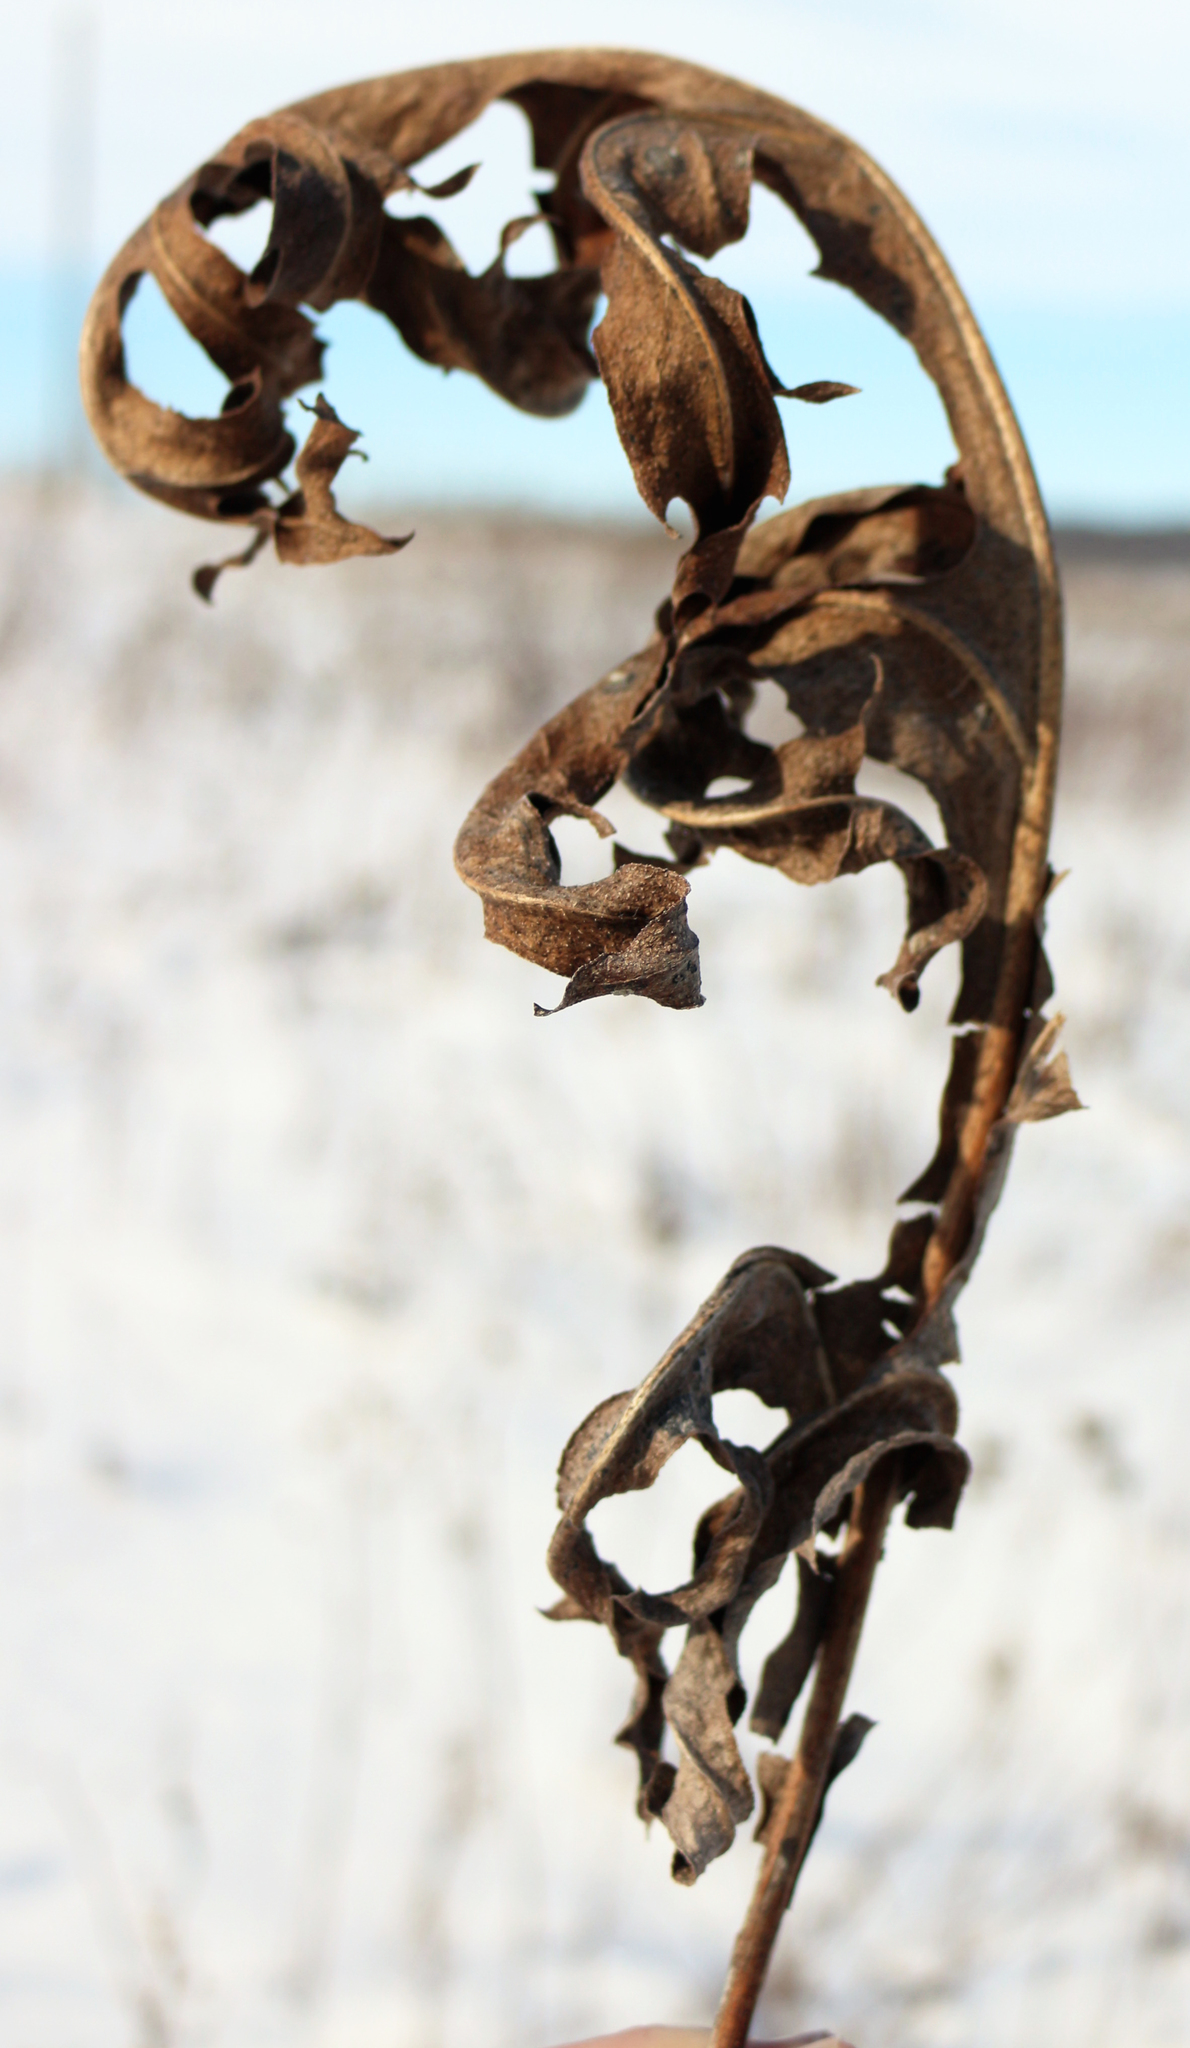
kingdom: Plantae
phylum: Tracheophyta
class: Magnoliopsida
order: Asterales
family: Asteraceae
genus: Silphium
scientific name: Silphium laciniatum
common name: Polarplant
